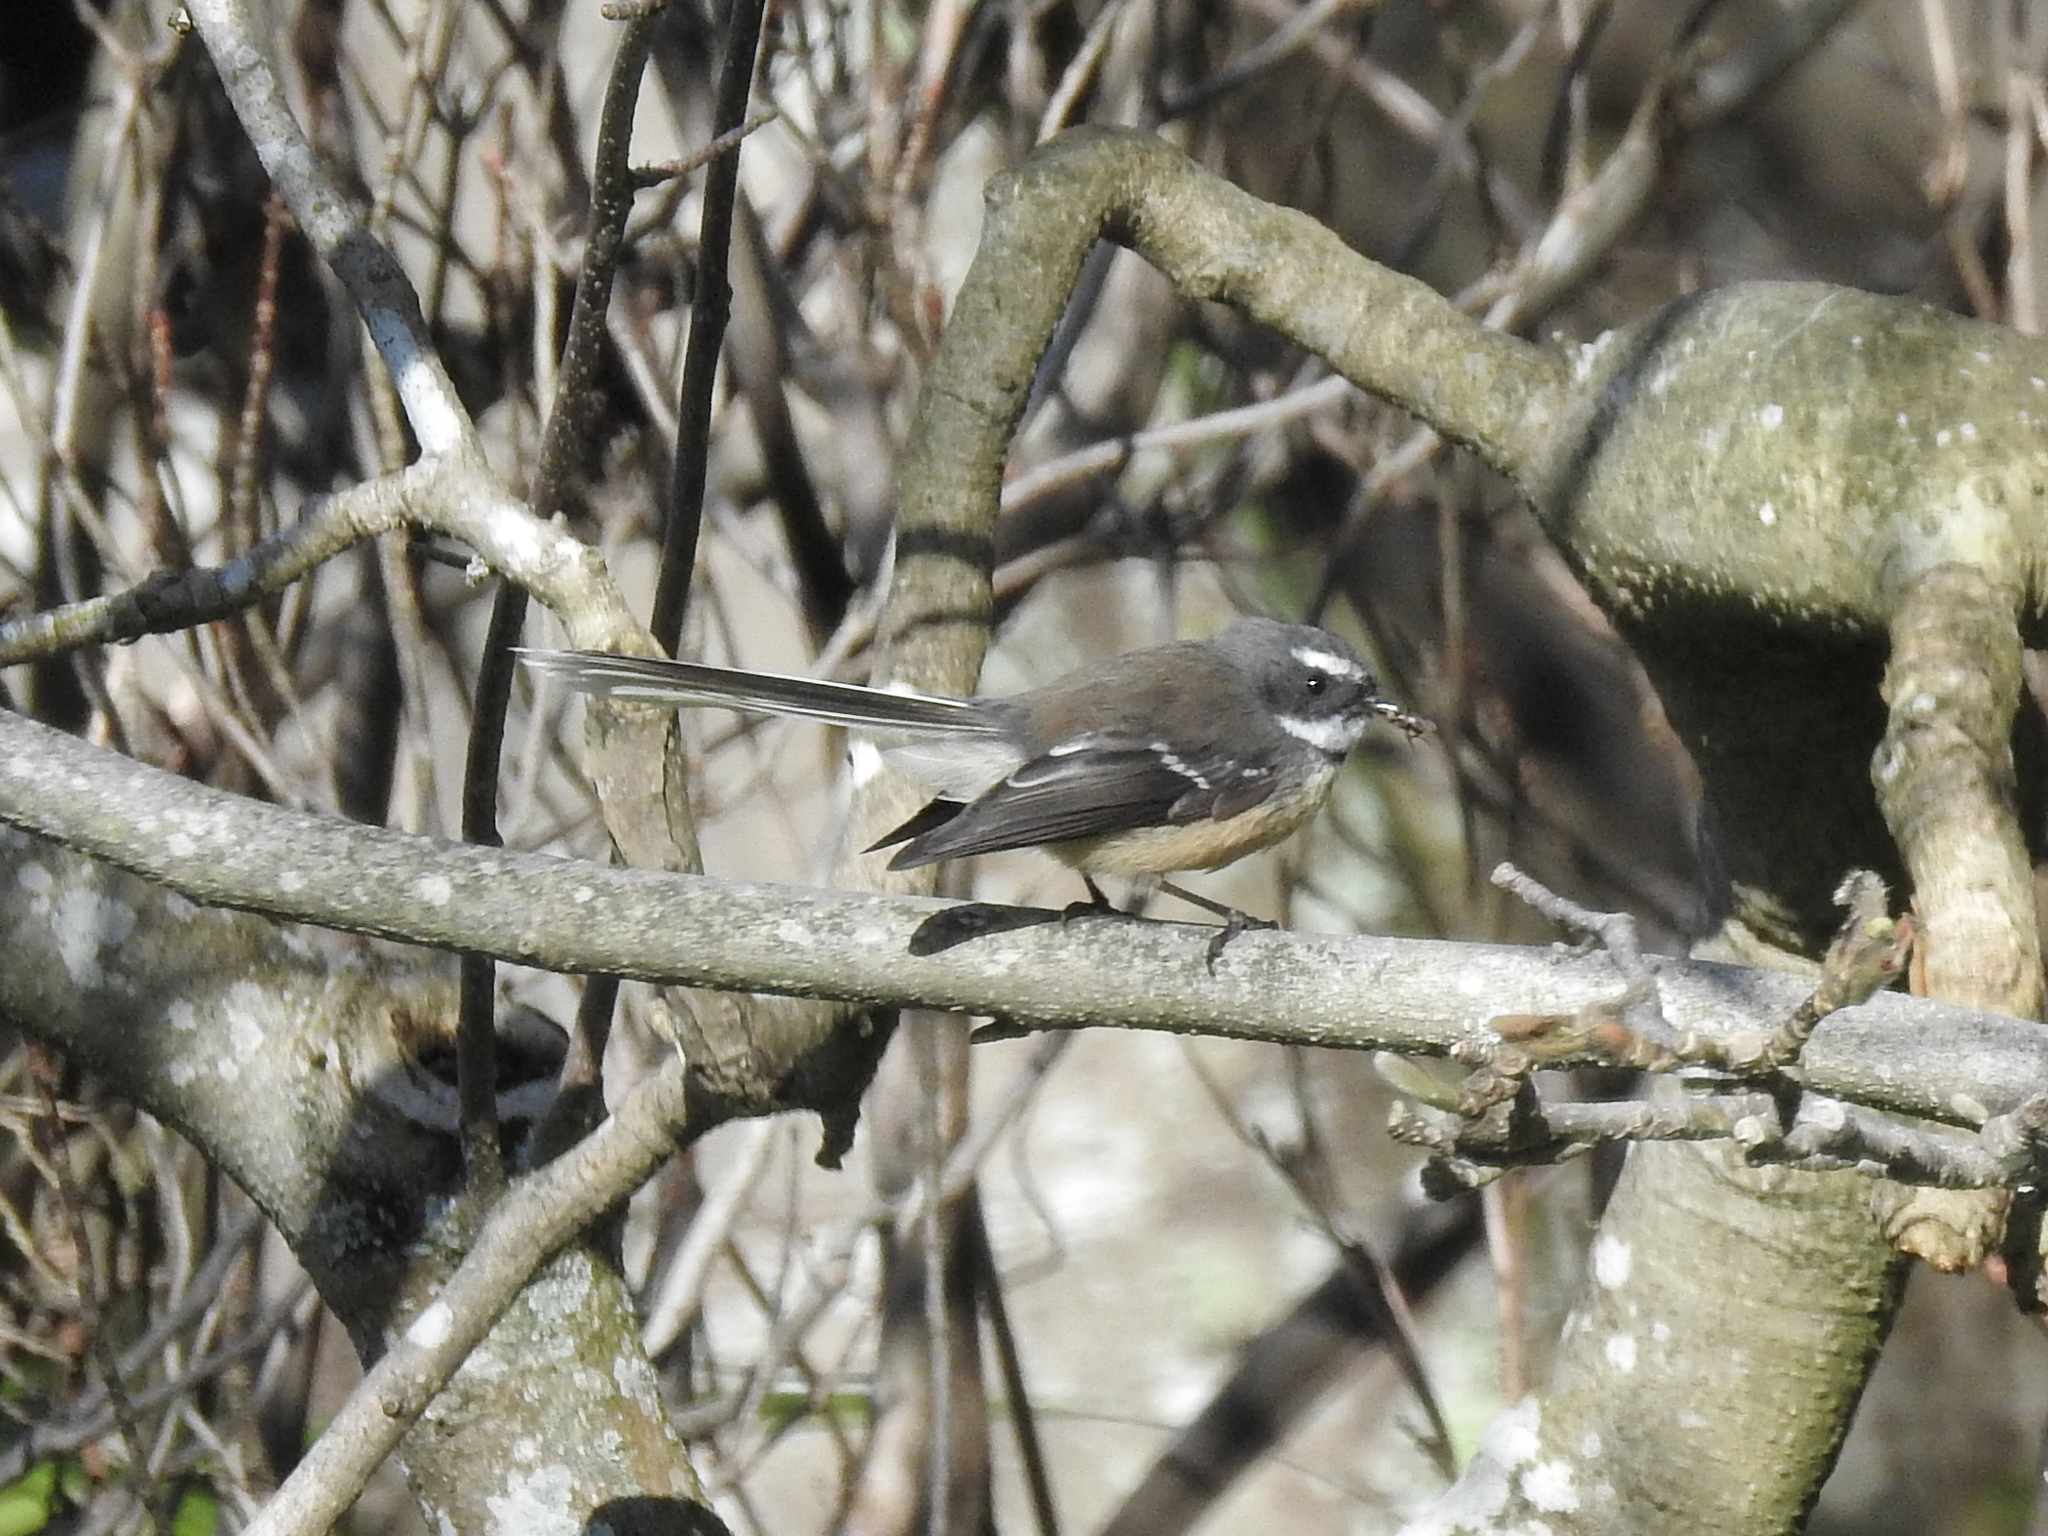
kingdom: Animalia
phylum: Chordata
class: Aves
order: Passeriformes
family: Rhipiduridae
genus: Rhipidura
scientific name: Rhipidura fuliginosa
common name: New zealand fantail
